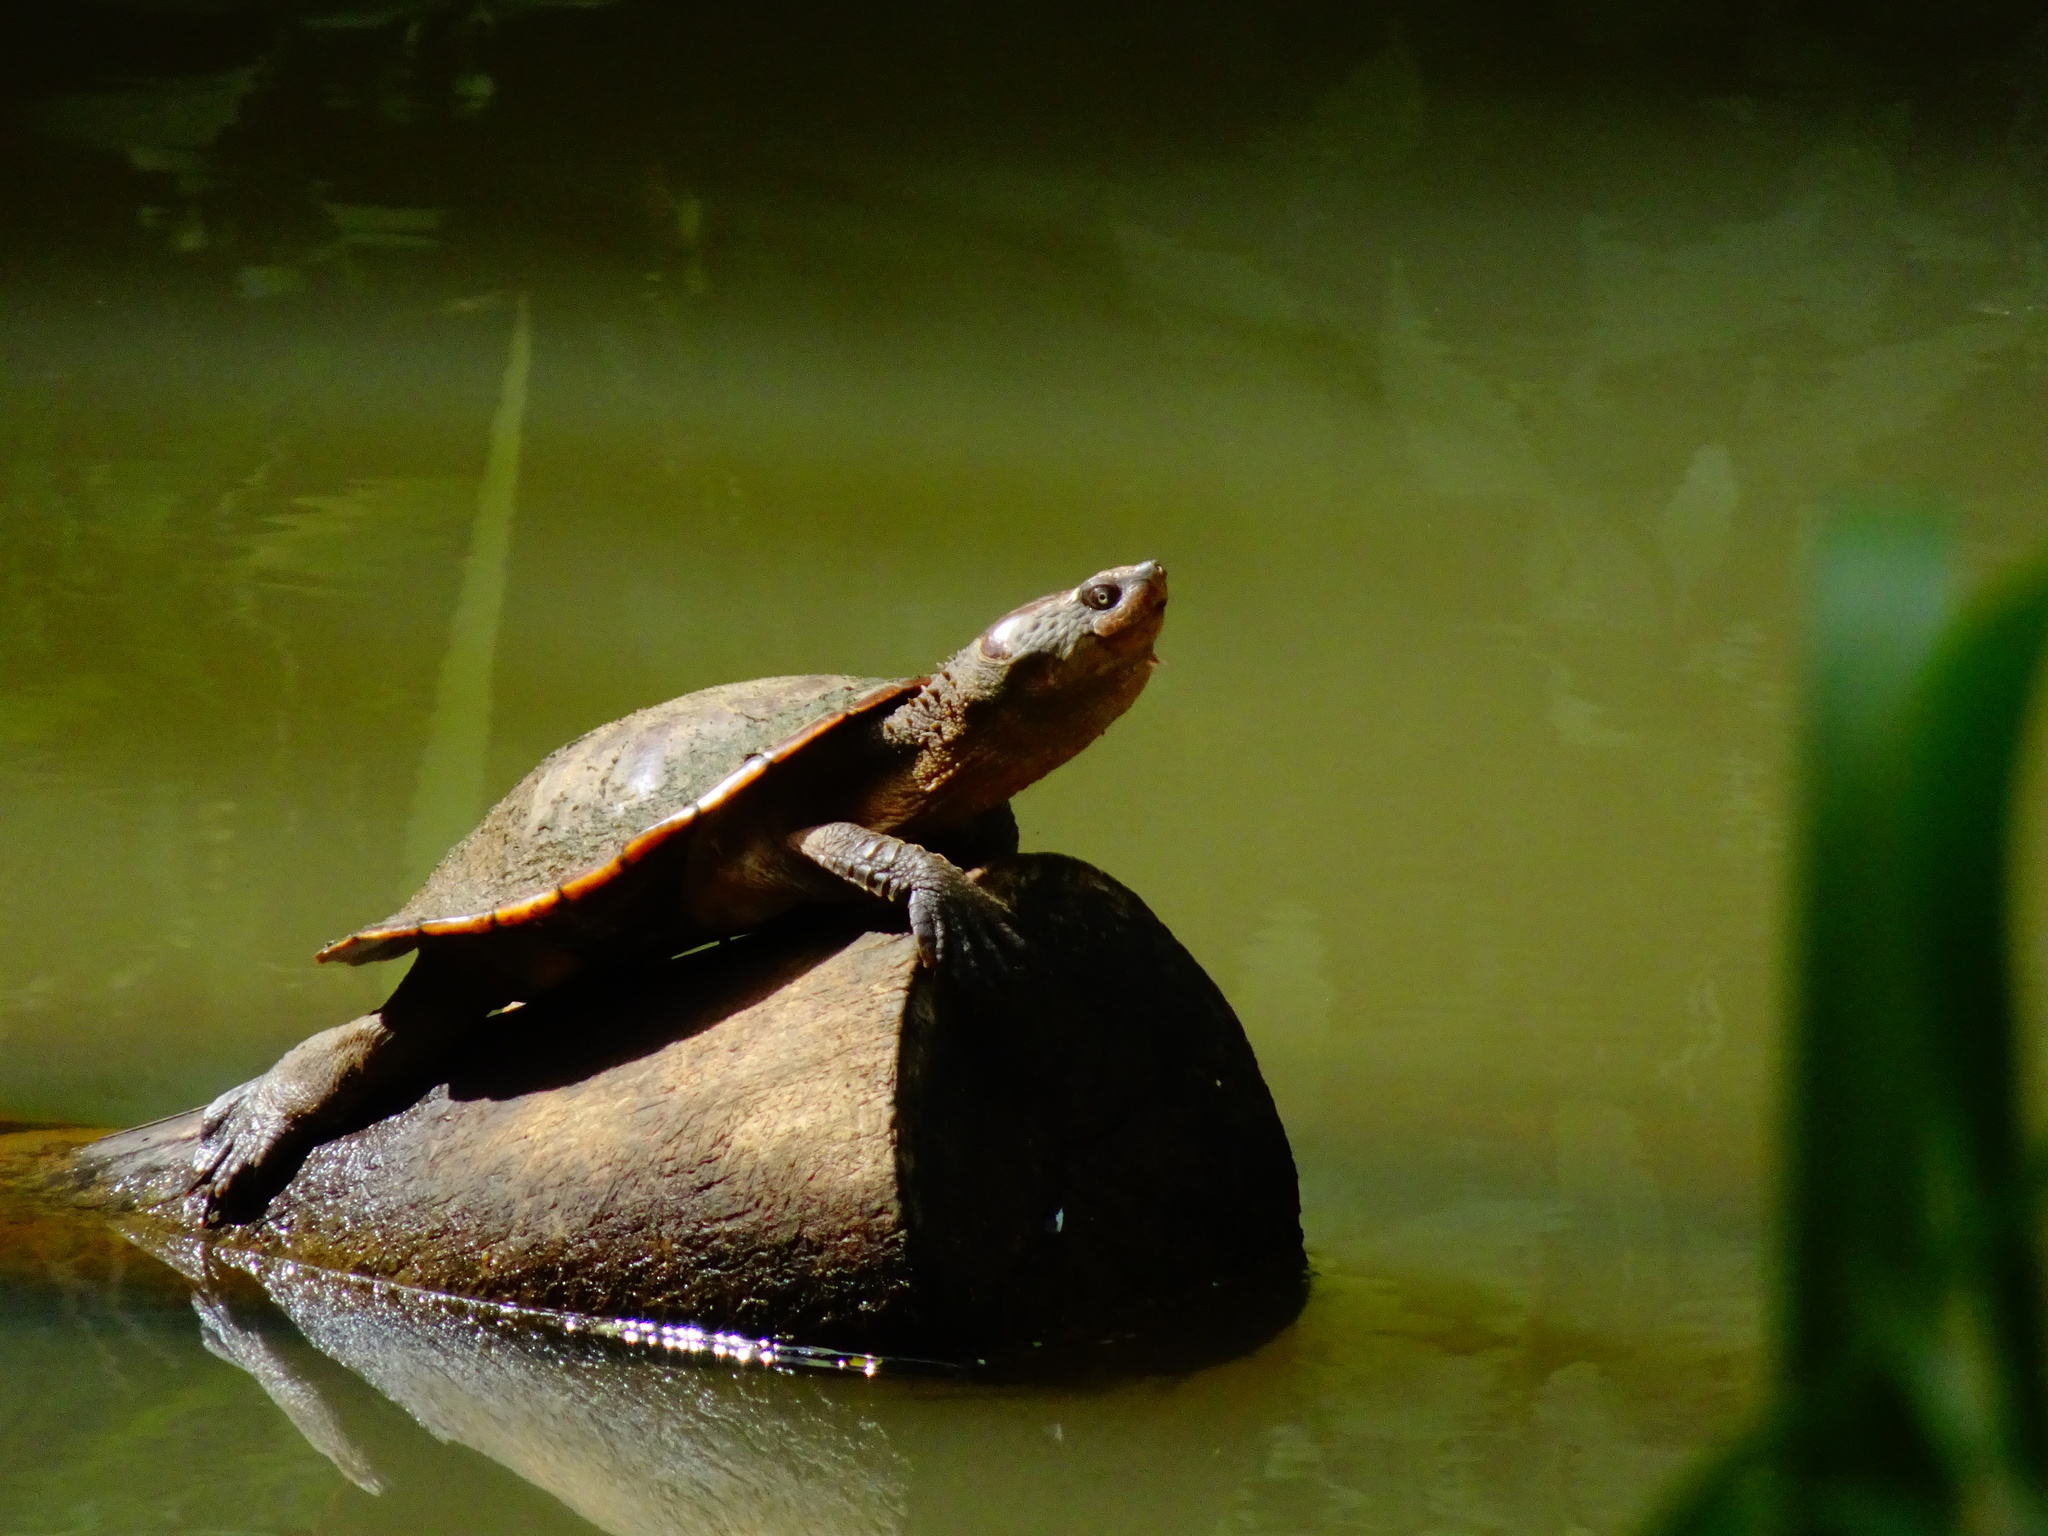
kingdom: Animalia
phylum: Chordata
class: Testudines
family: Chelidae
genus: Myuchelys
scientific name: Myuchelys latisternum
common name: Serrated snapping turtle
